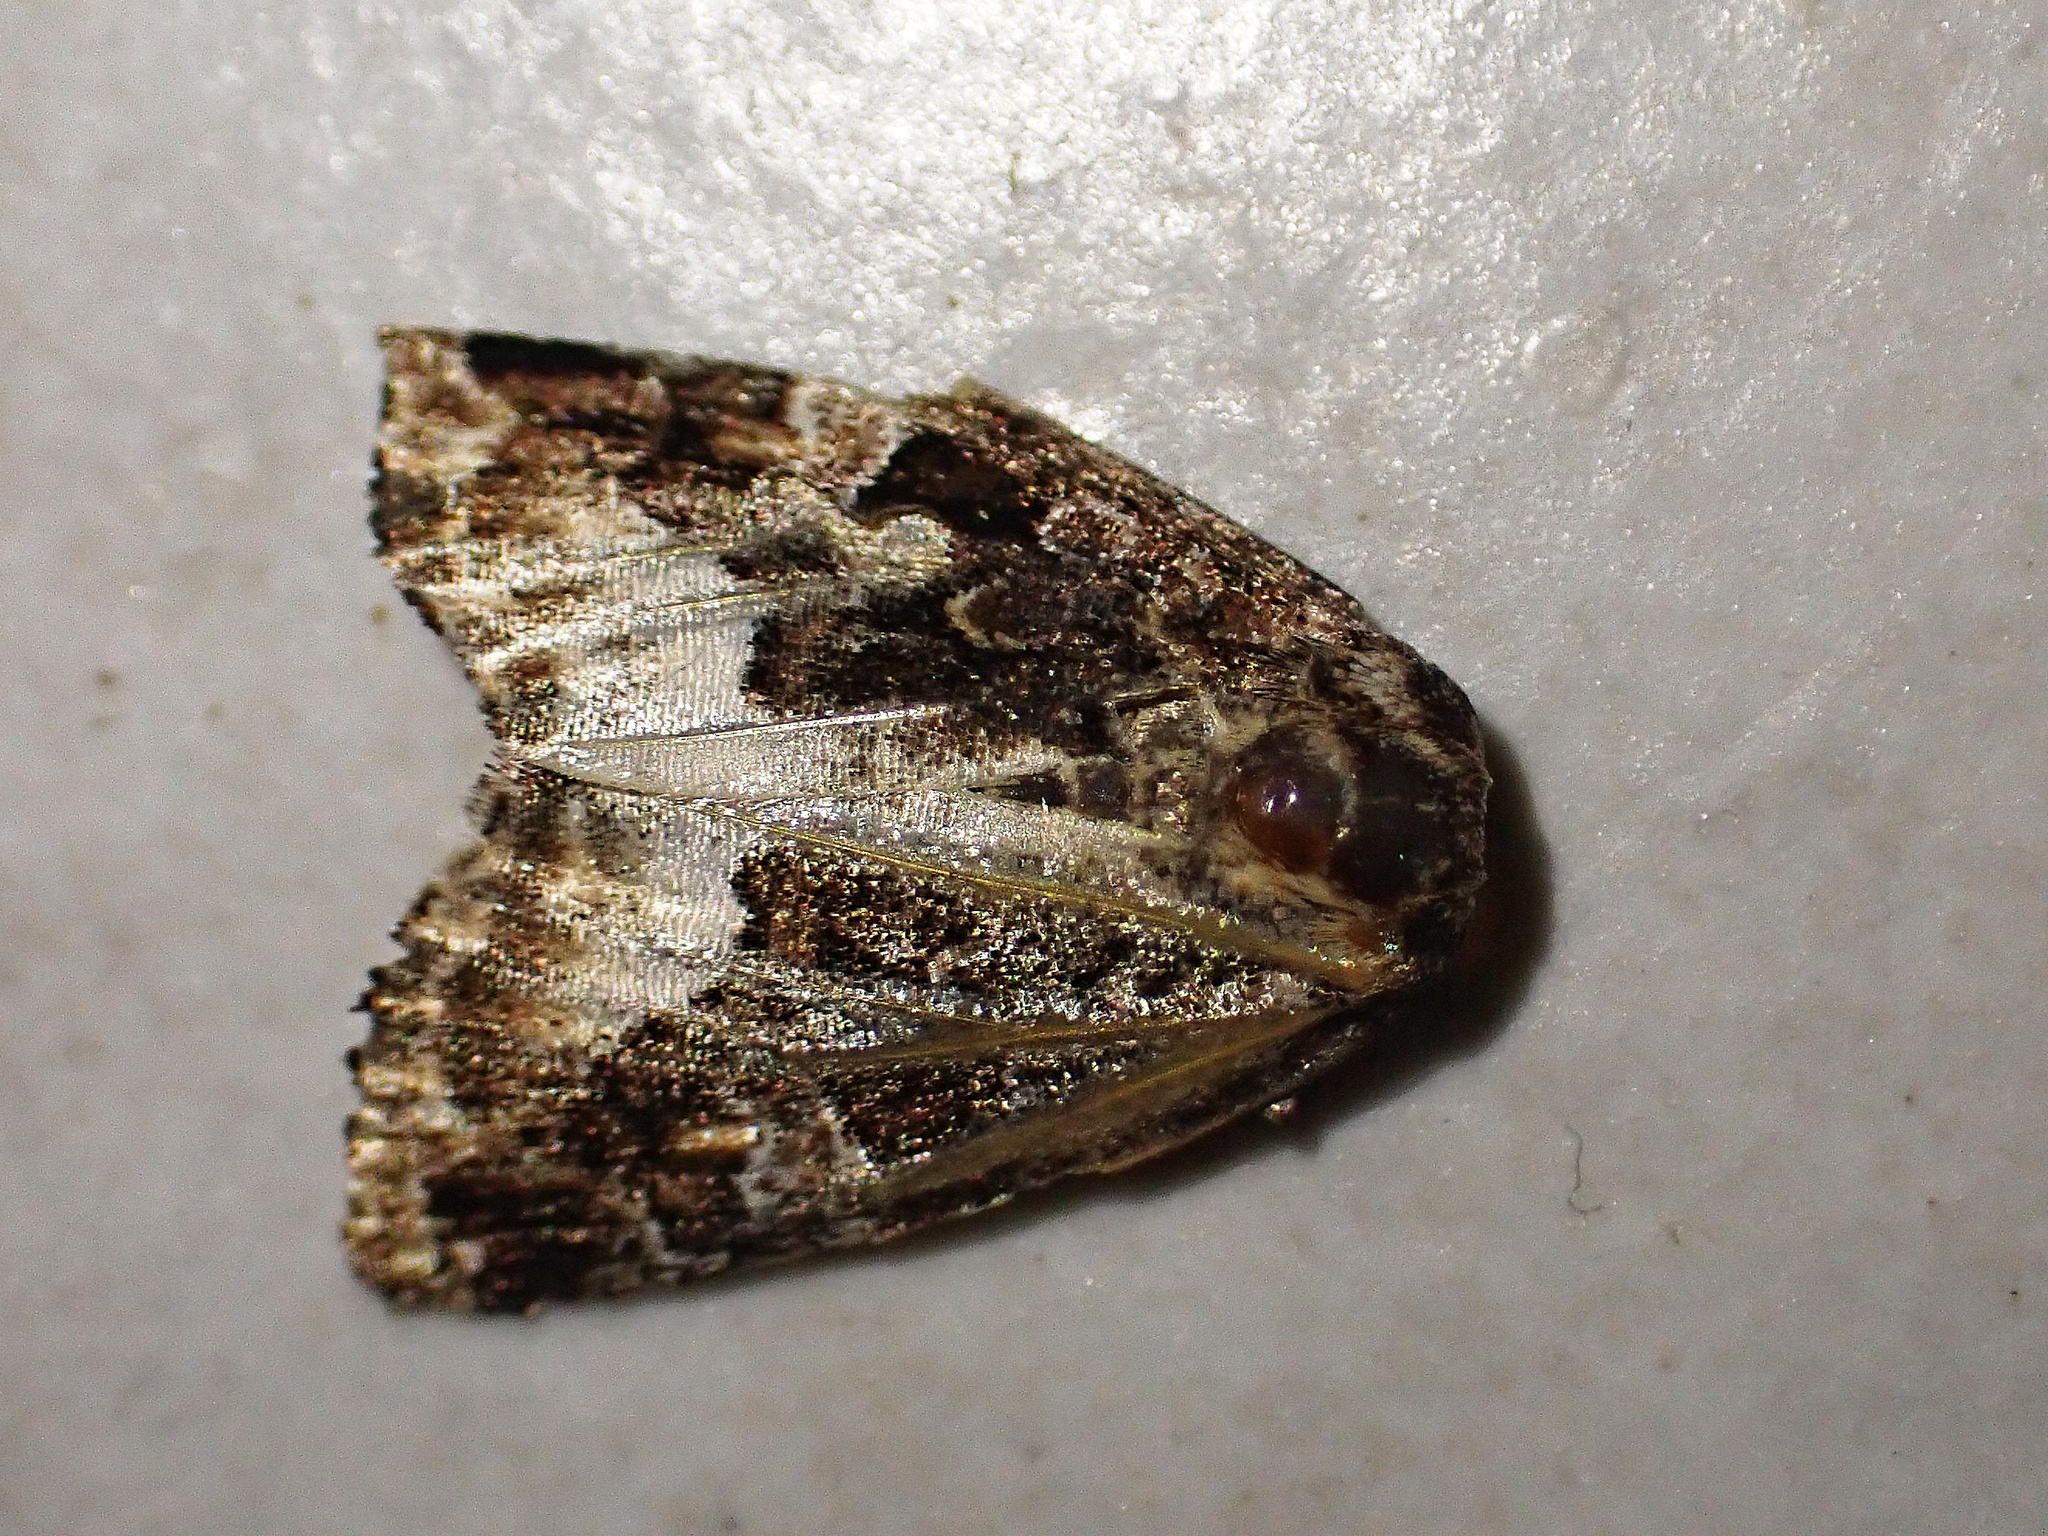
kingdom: Animalia
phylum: Arthropoda
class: Insecta
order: Lepidoptera
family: Noctuidae
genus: Deltote
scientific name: Deltote pygarga
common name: Marbled white spot
